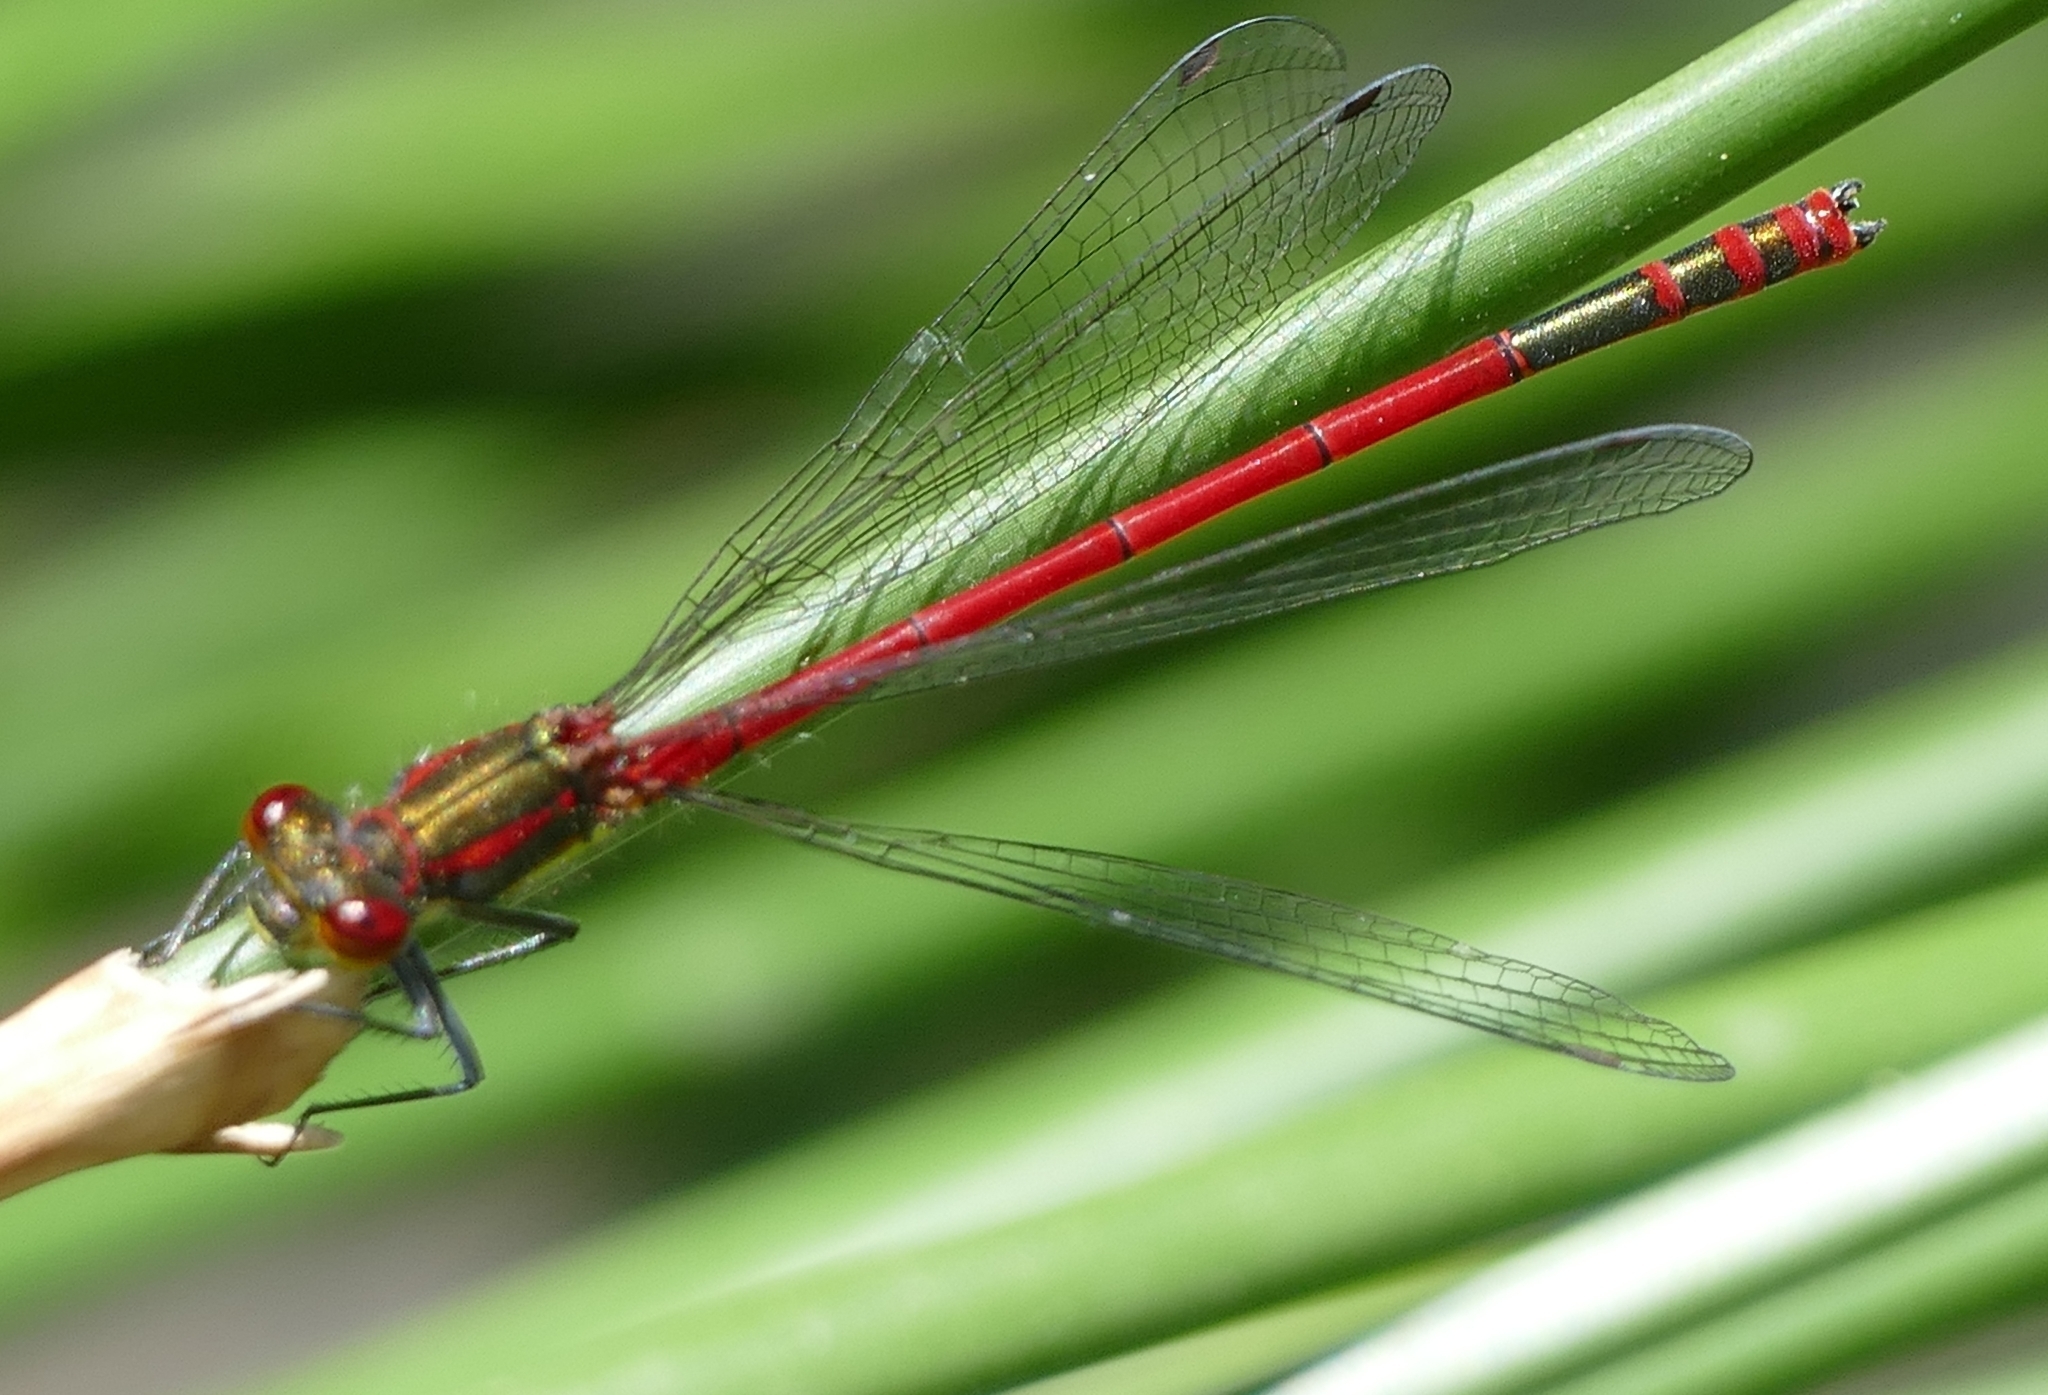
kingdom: Animalia
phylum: Arthropoda
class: Insecta
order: Odonata
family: Coenagrionidae
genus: Pyrrhosoma
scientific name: Pyrrhosoma nymphula
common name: Large red damsel
